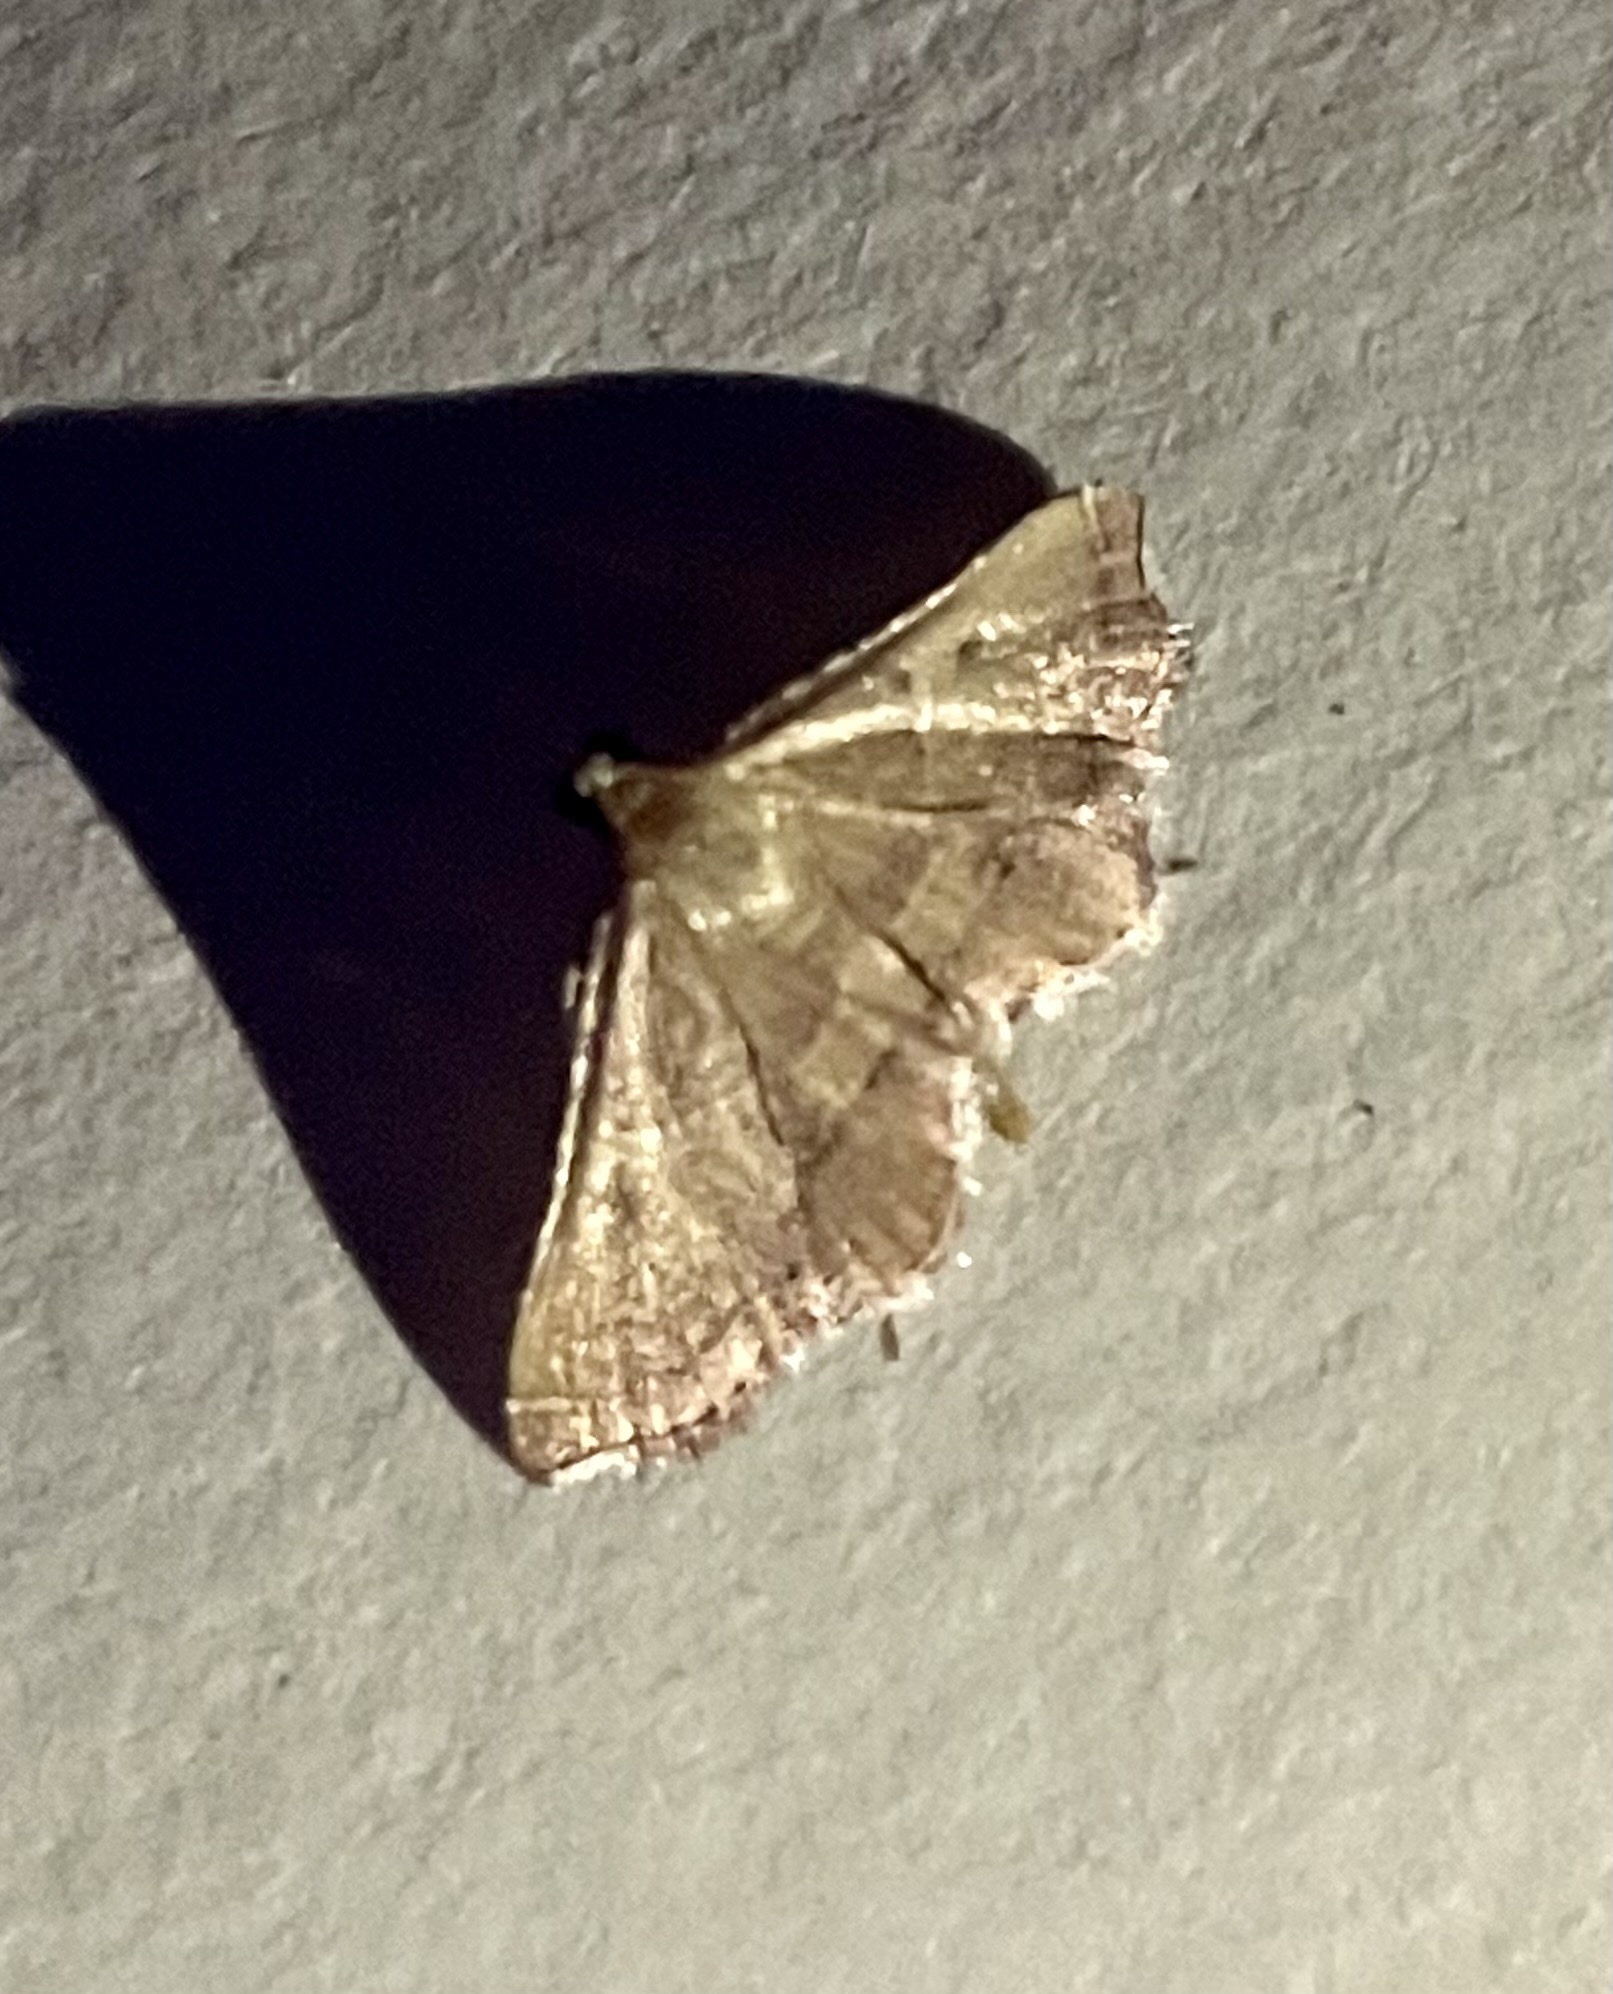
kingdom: Animalia
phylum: Arthropoda
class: Insecta
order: Lepidoptera
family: Pyralidae
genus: Endotricha
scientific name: Endotricha flammealis
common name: Rosy tabby
